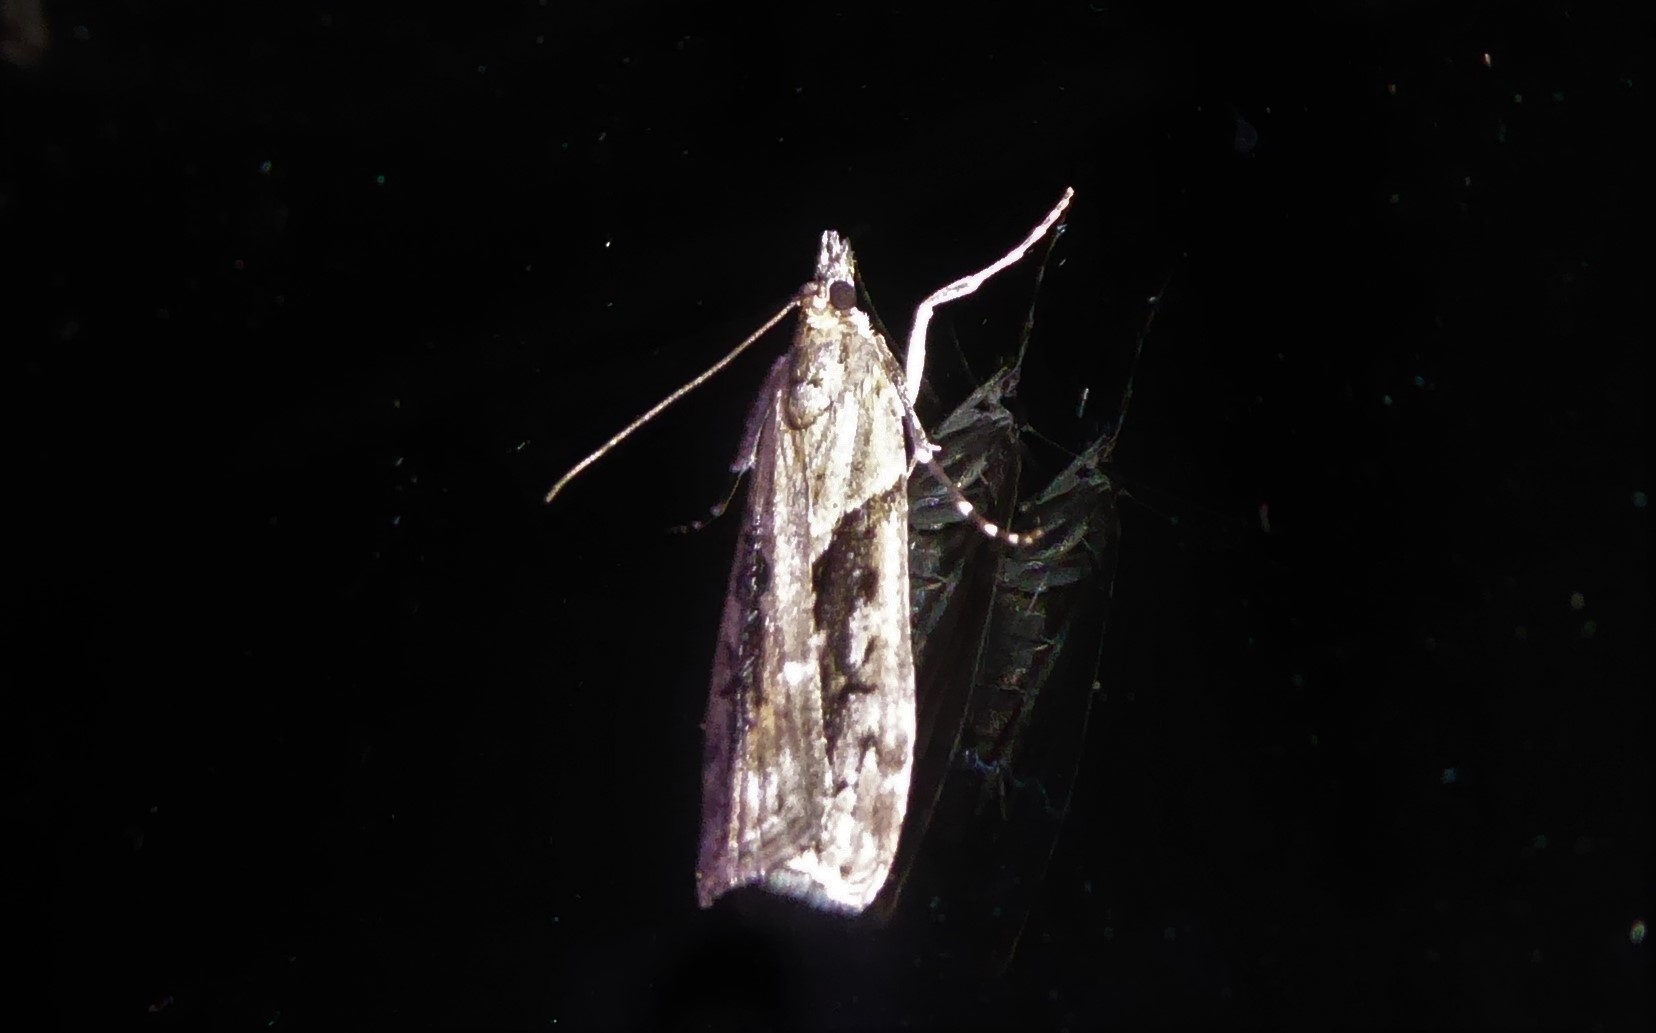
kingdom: Animalia
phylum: Arthropoda
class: Insecta
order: Lepidoptera
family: Crambidae
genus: Eudonia
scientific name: Eudonia submarginalis
